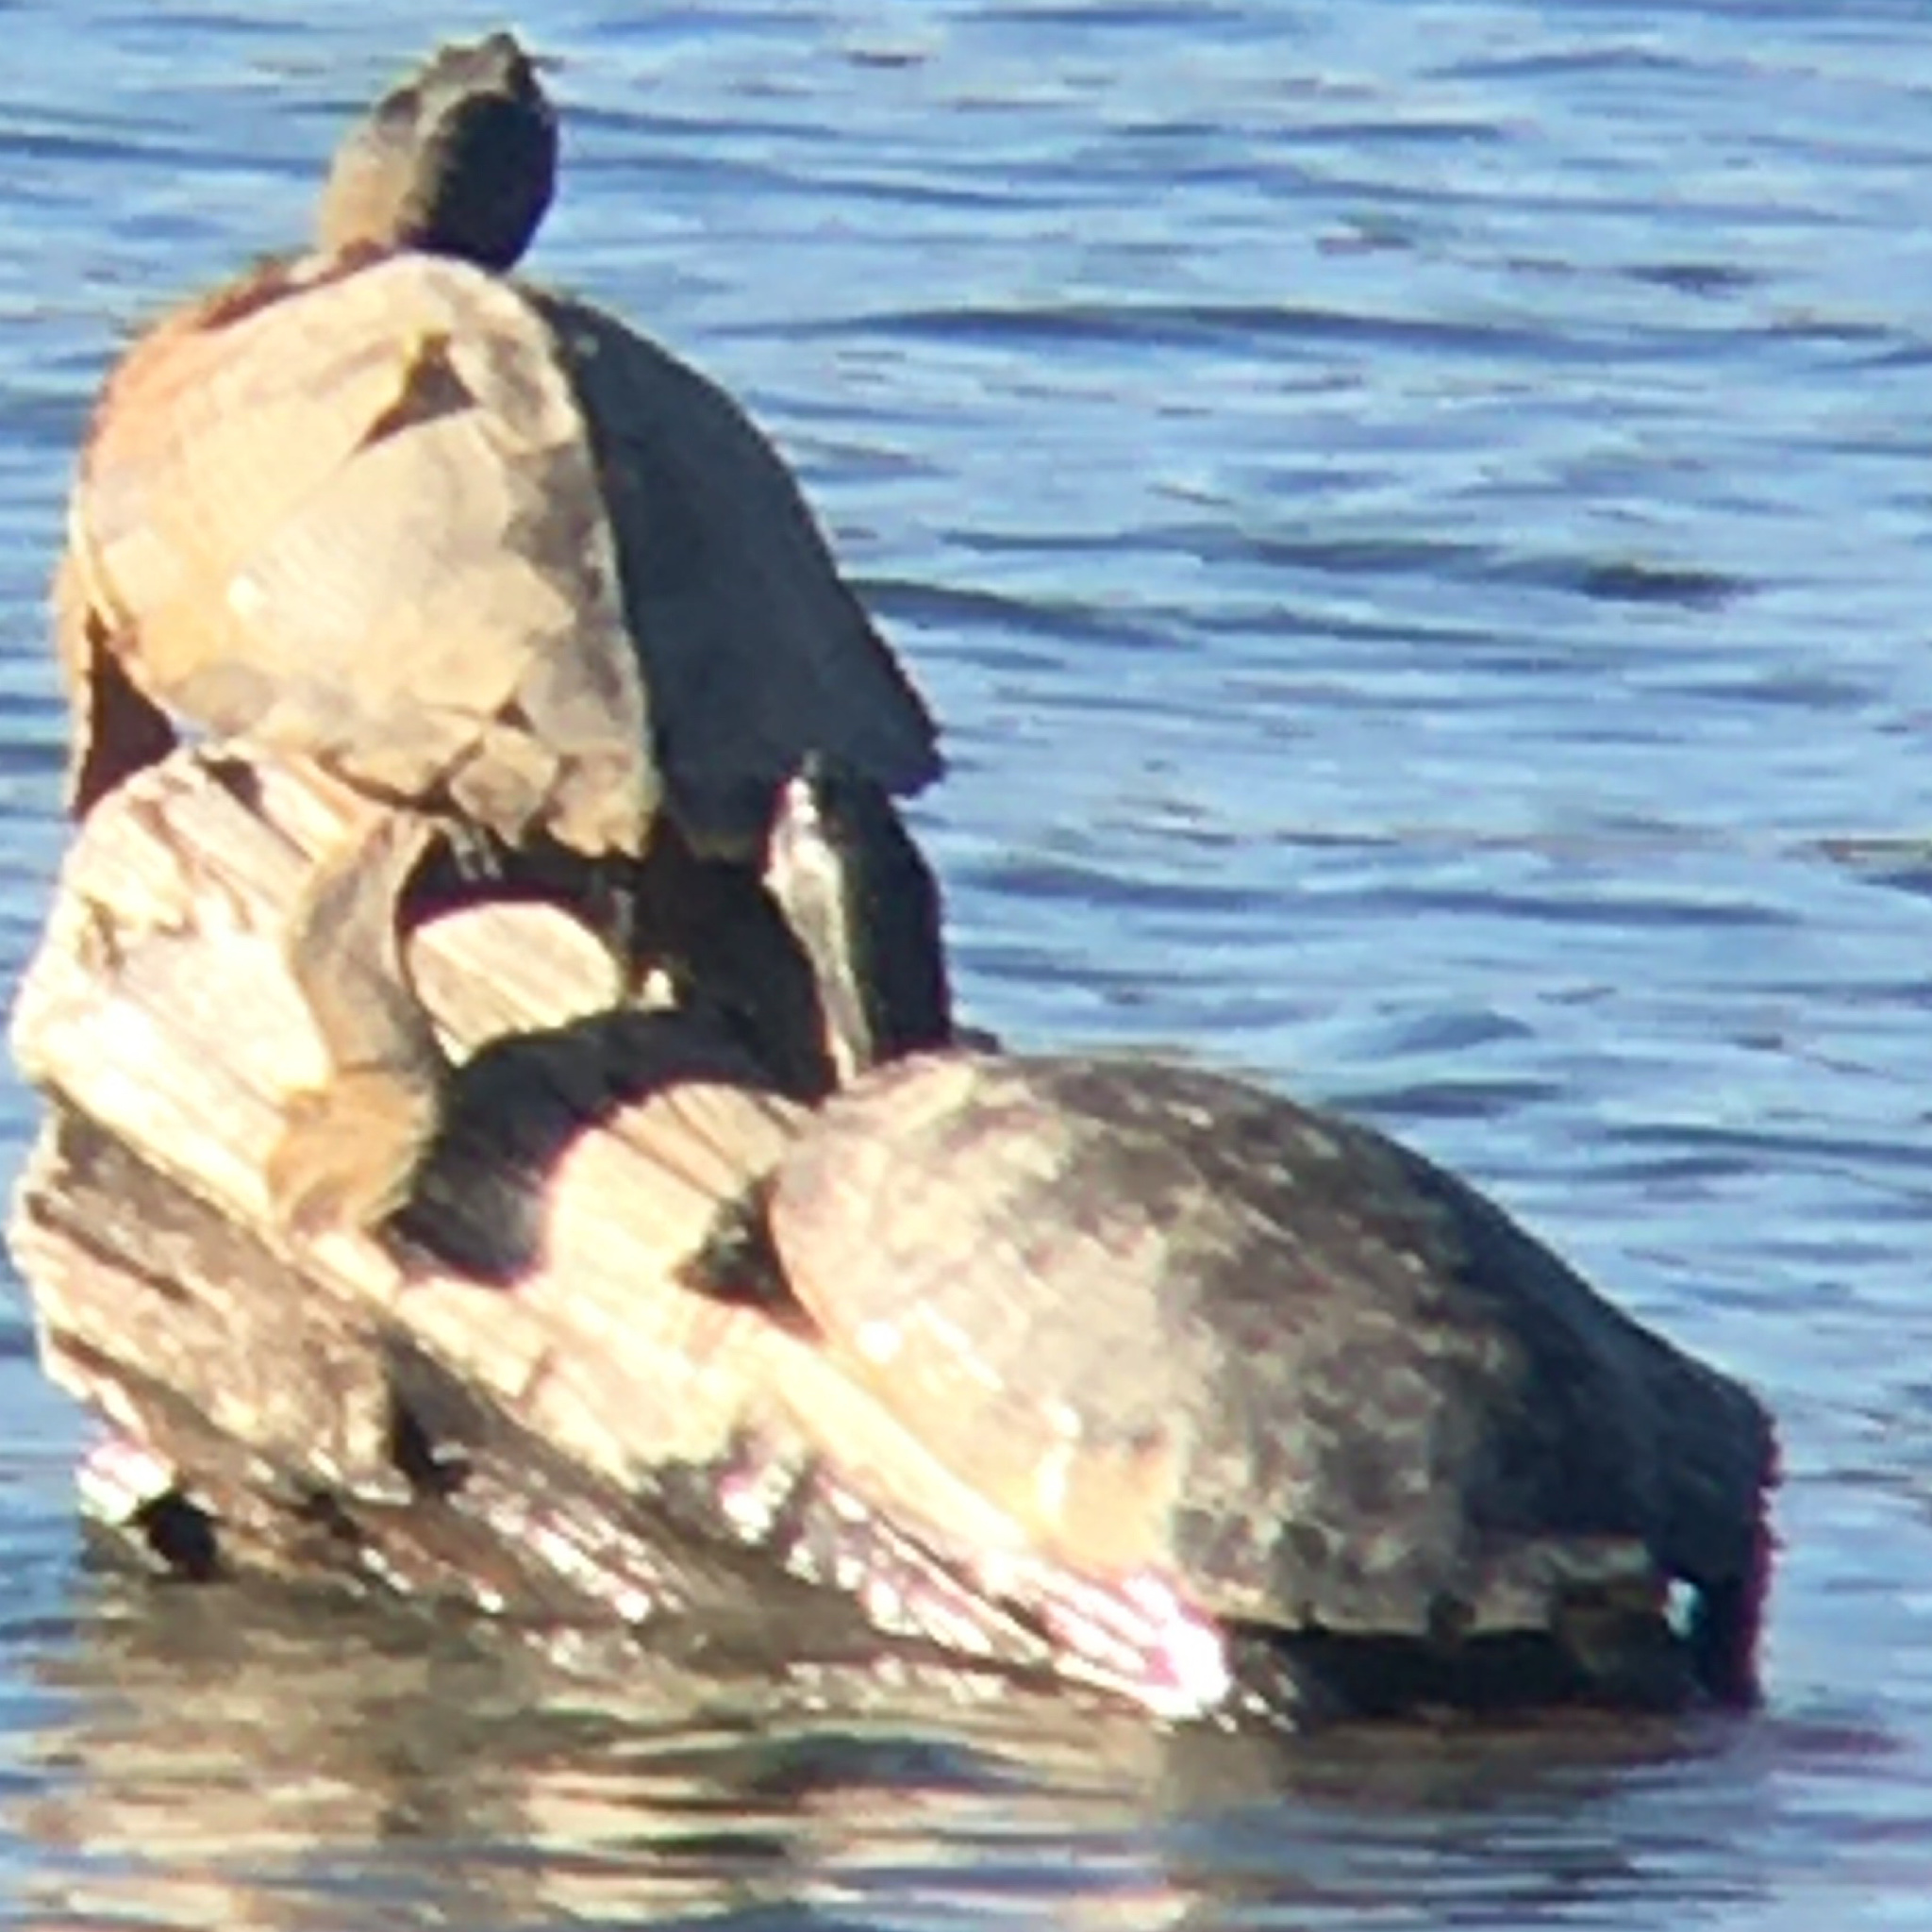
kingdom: Animalia
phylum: Chordata
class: Testudines
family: Emydidae
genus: Graptemys
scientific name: Graptemys pseudogeographica
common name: False map turtle
